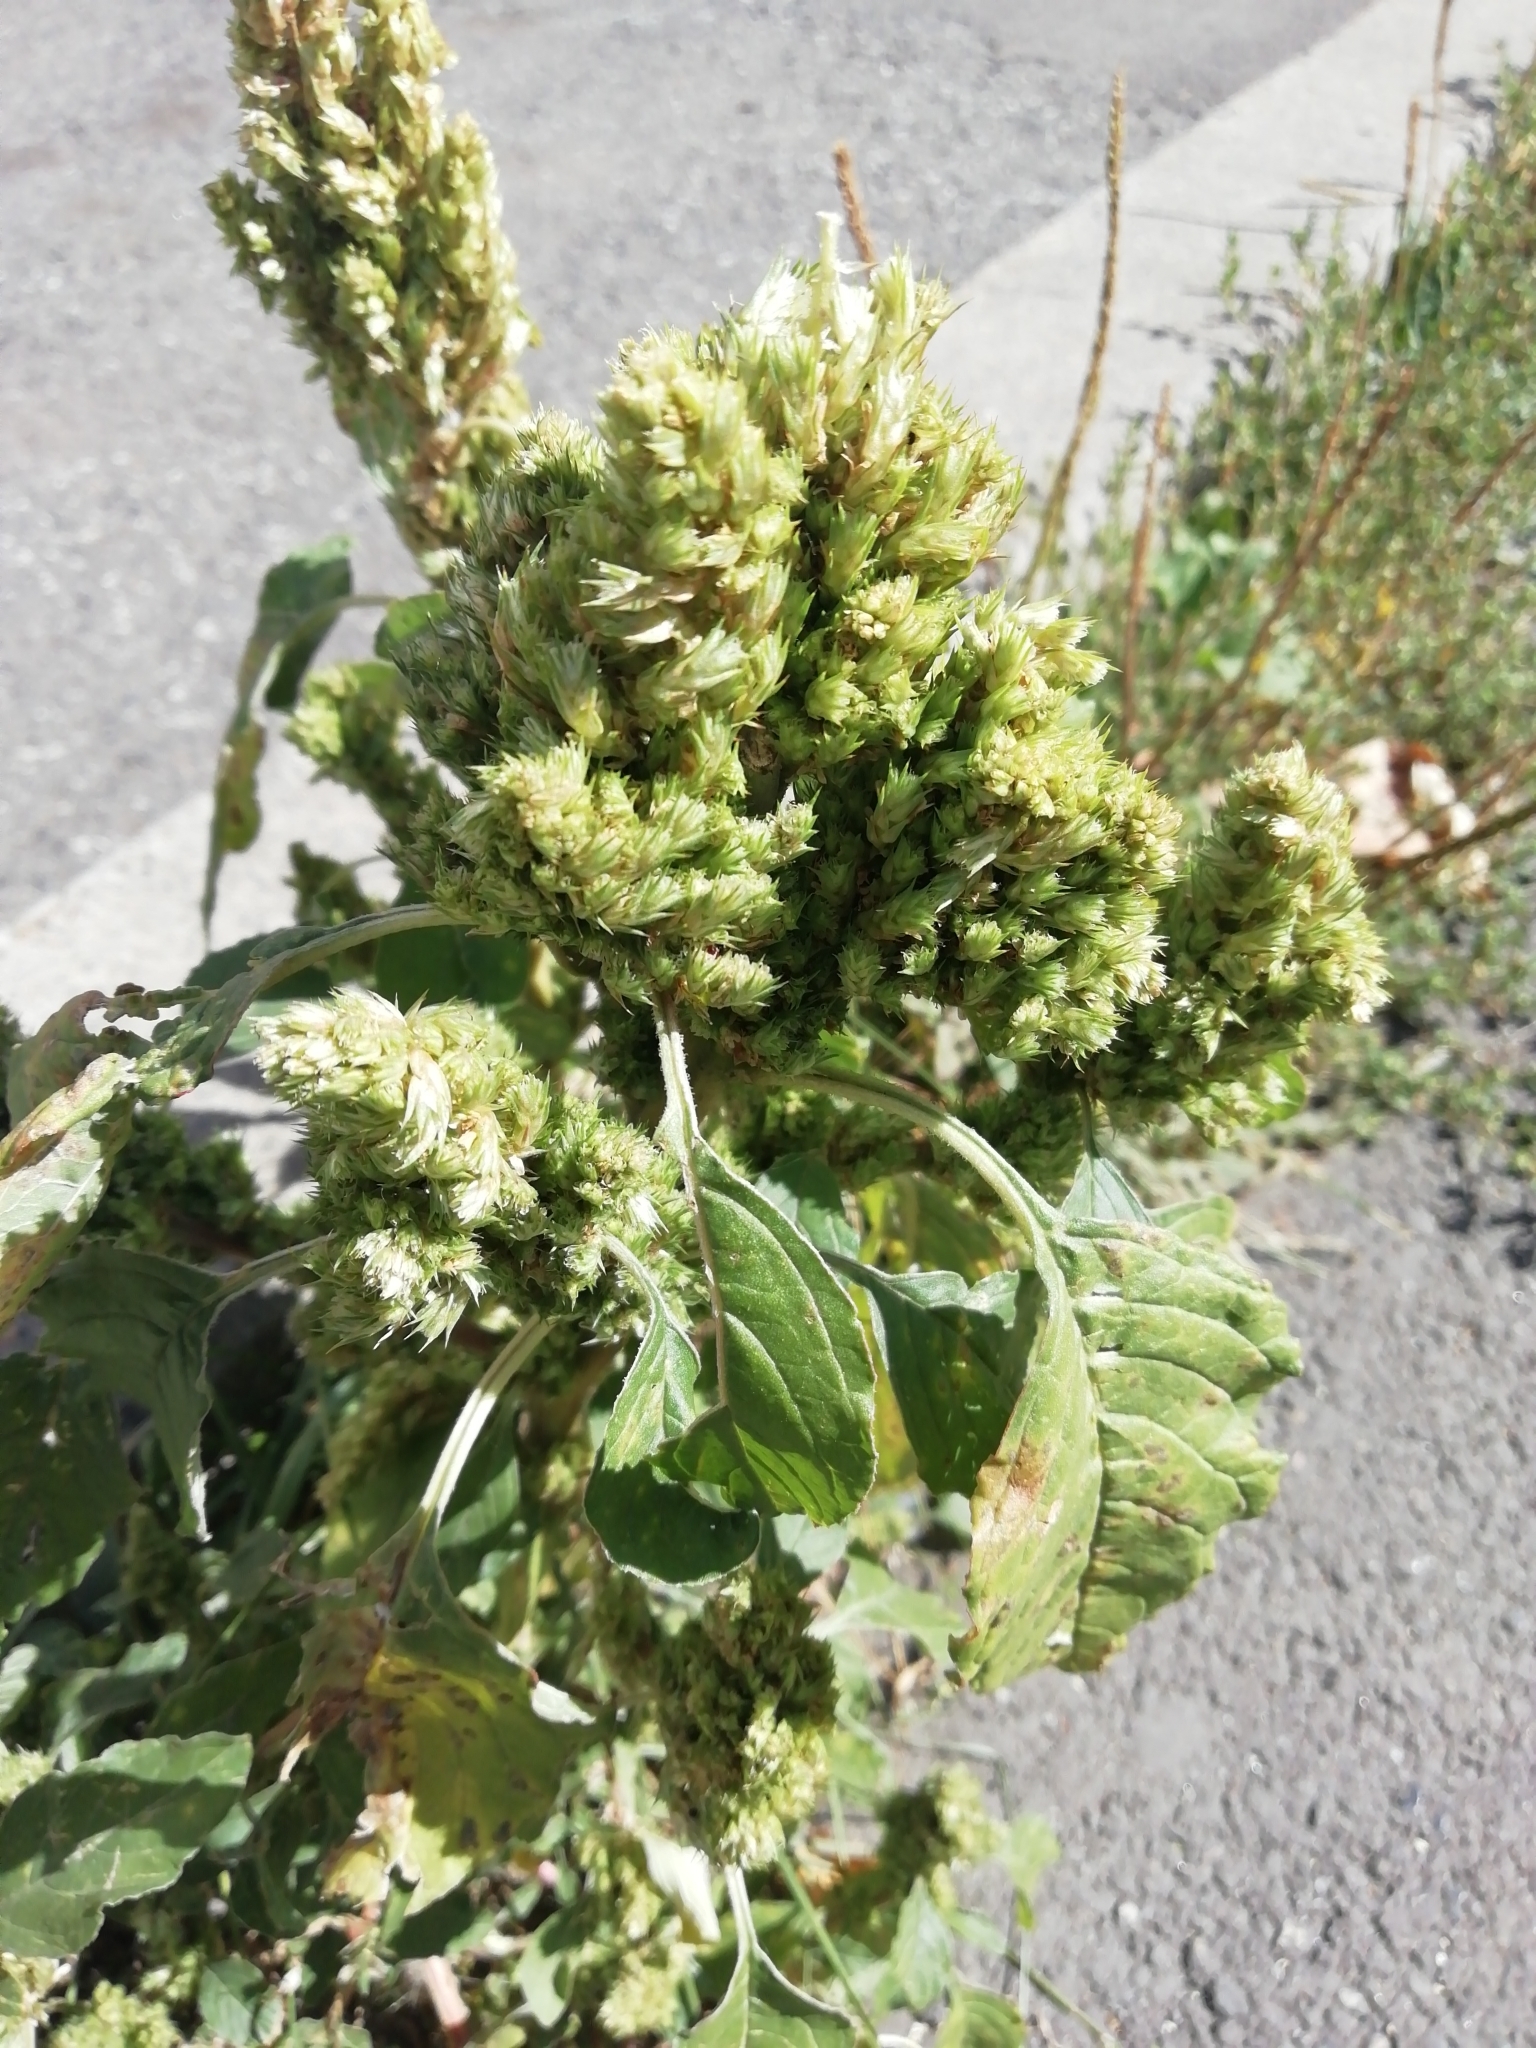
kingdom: Plantae
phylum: Tracheophyta
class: Magnoliopsida
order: Caryophyllales
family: Amaranthaceae
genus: Amaranthus
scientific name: Amaranthus retroflexus
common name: Redroot amaranth
